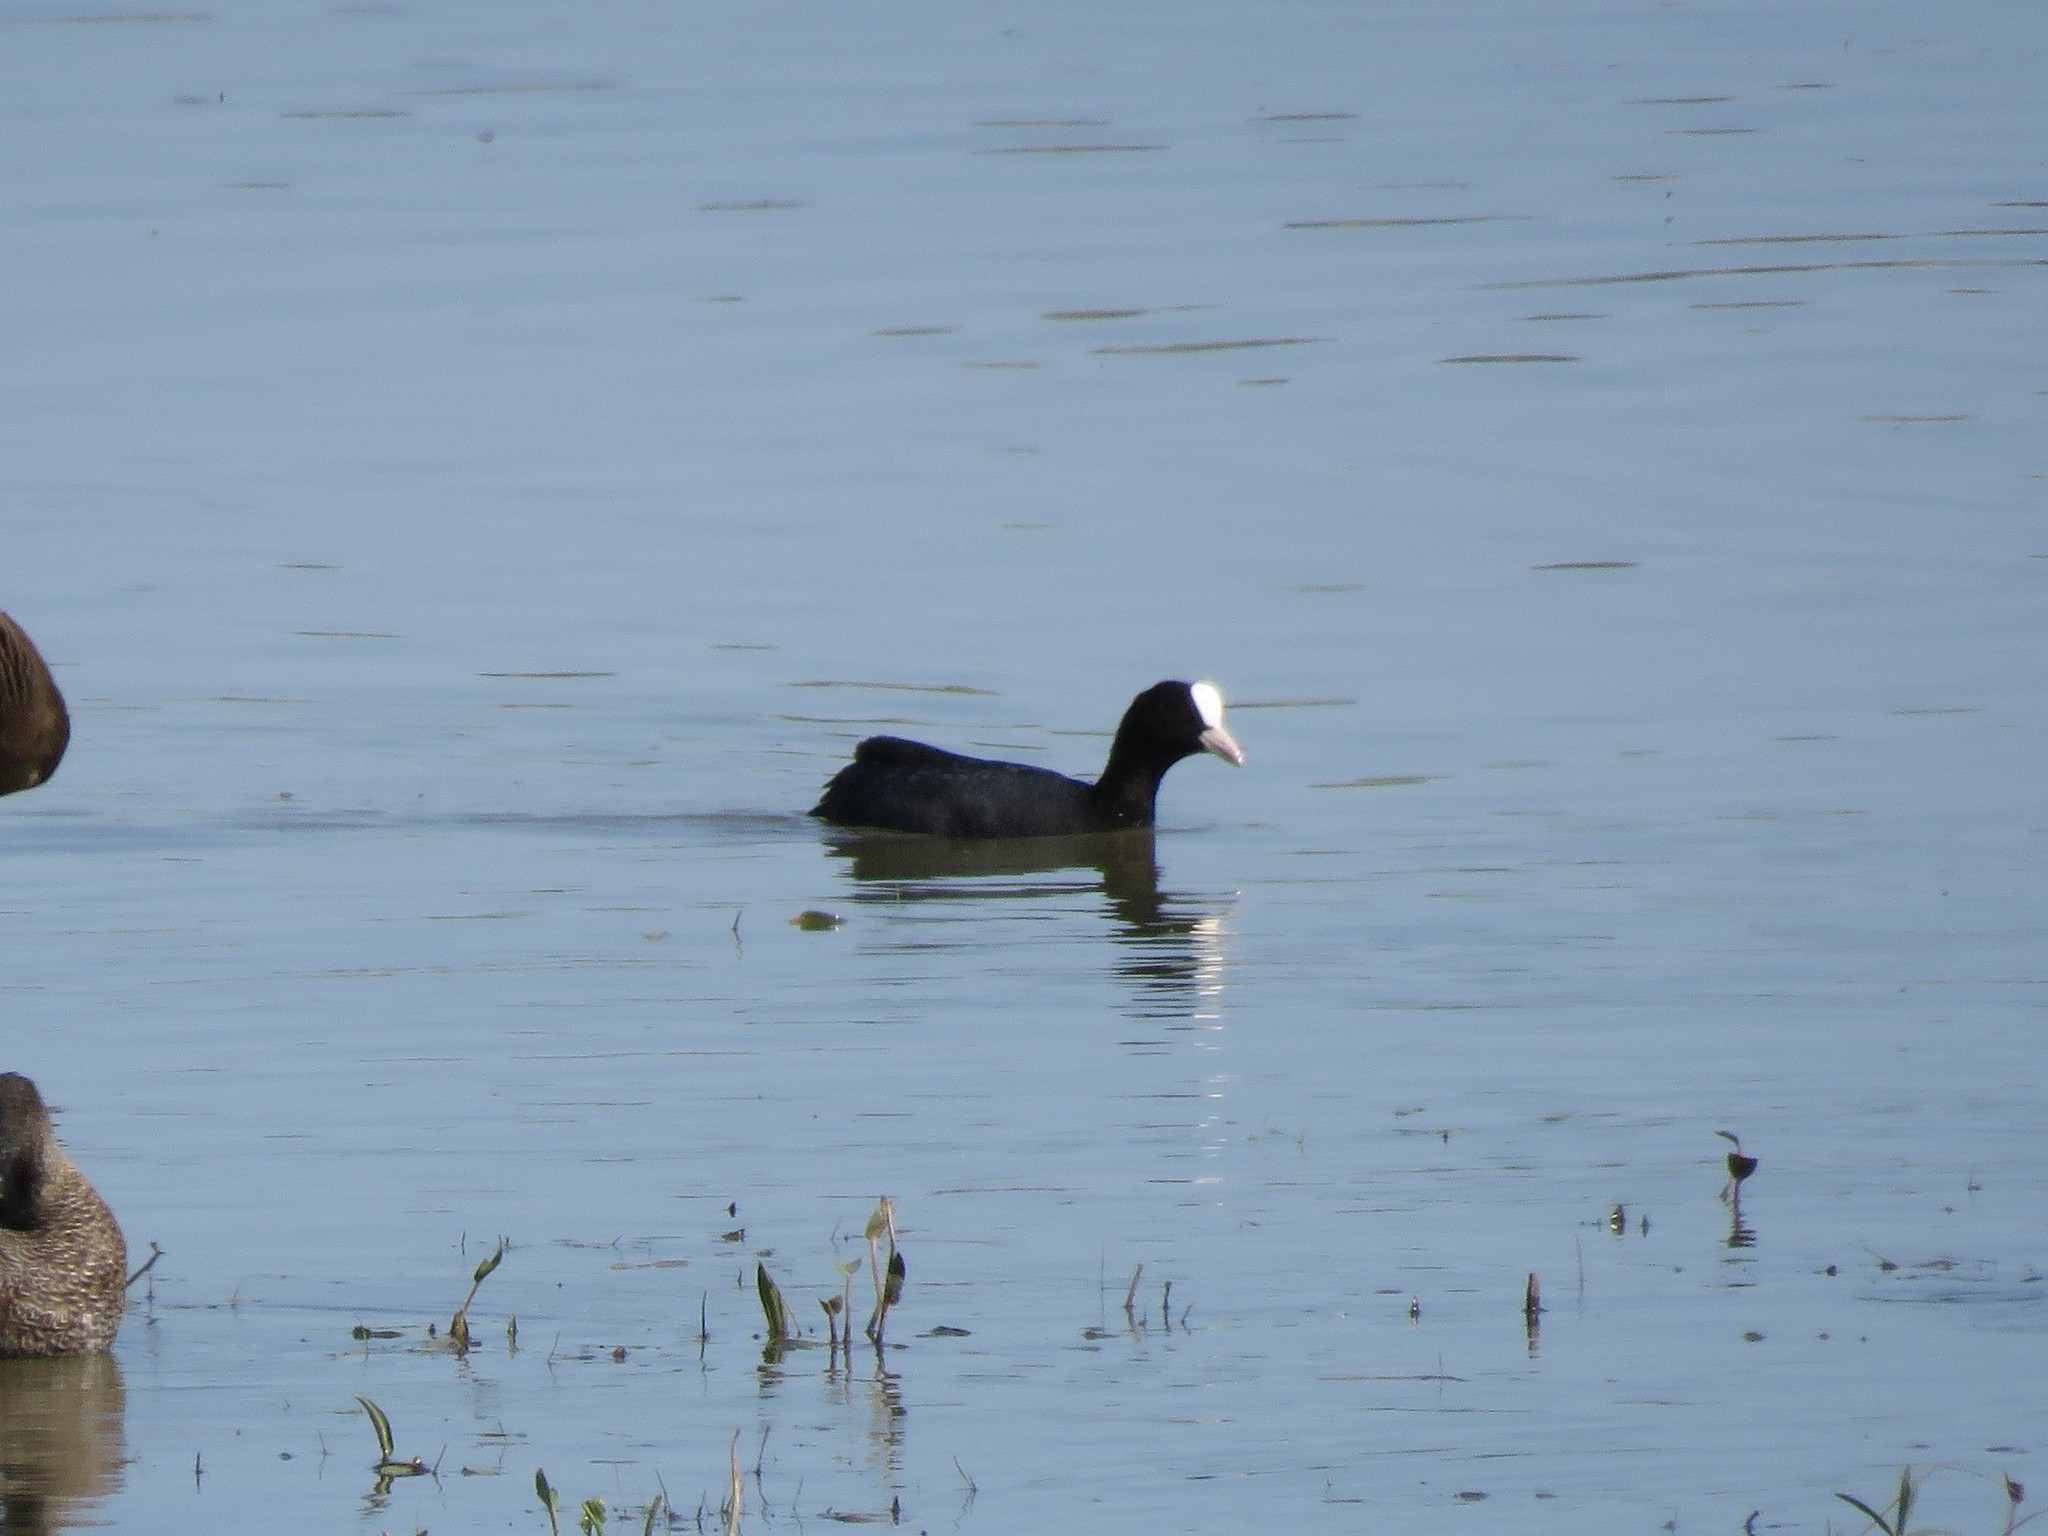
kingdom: Animalia
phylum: Chordata
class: Aves
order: Gruiformes
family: Rallidae
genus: Fulica
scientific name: Fulica atra
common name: Eurasian coot
